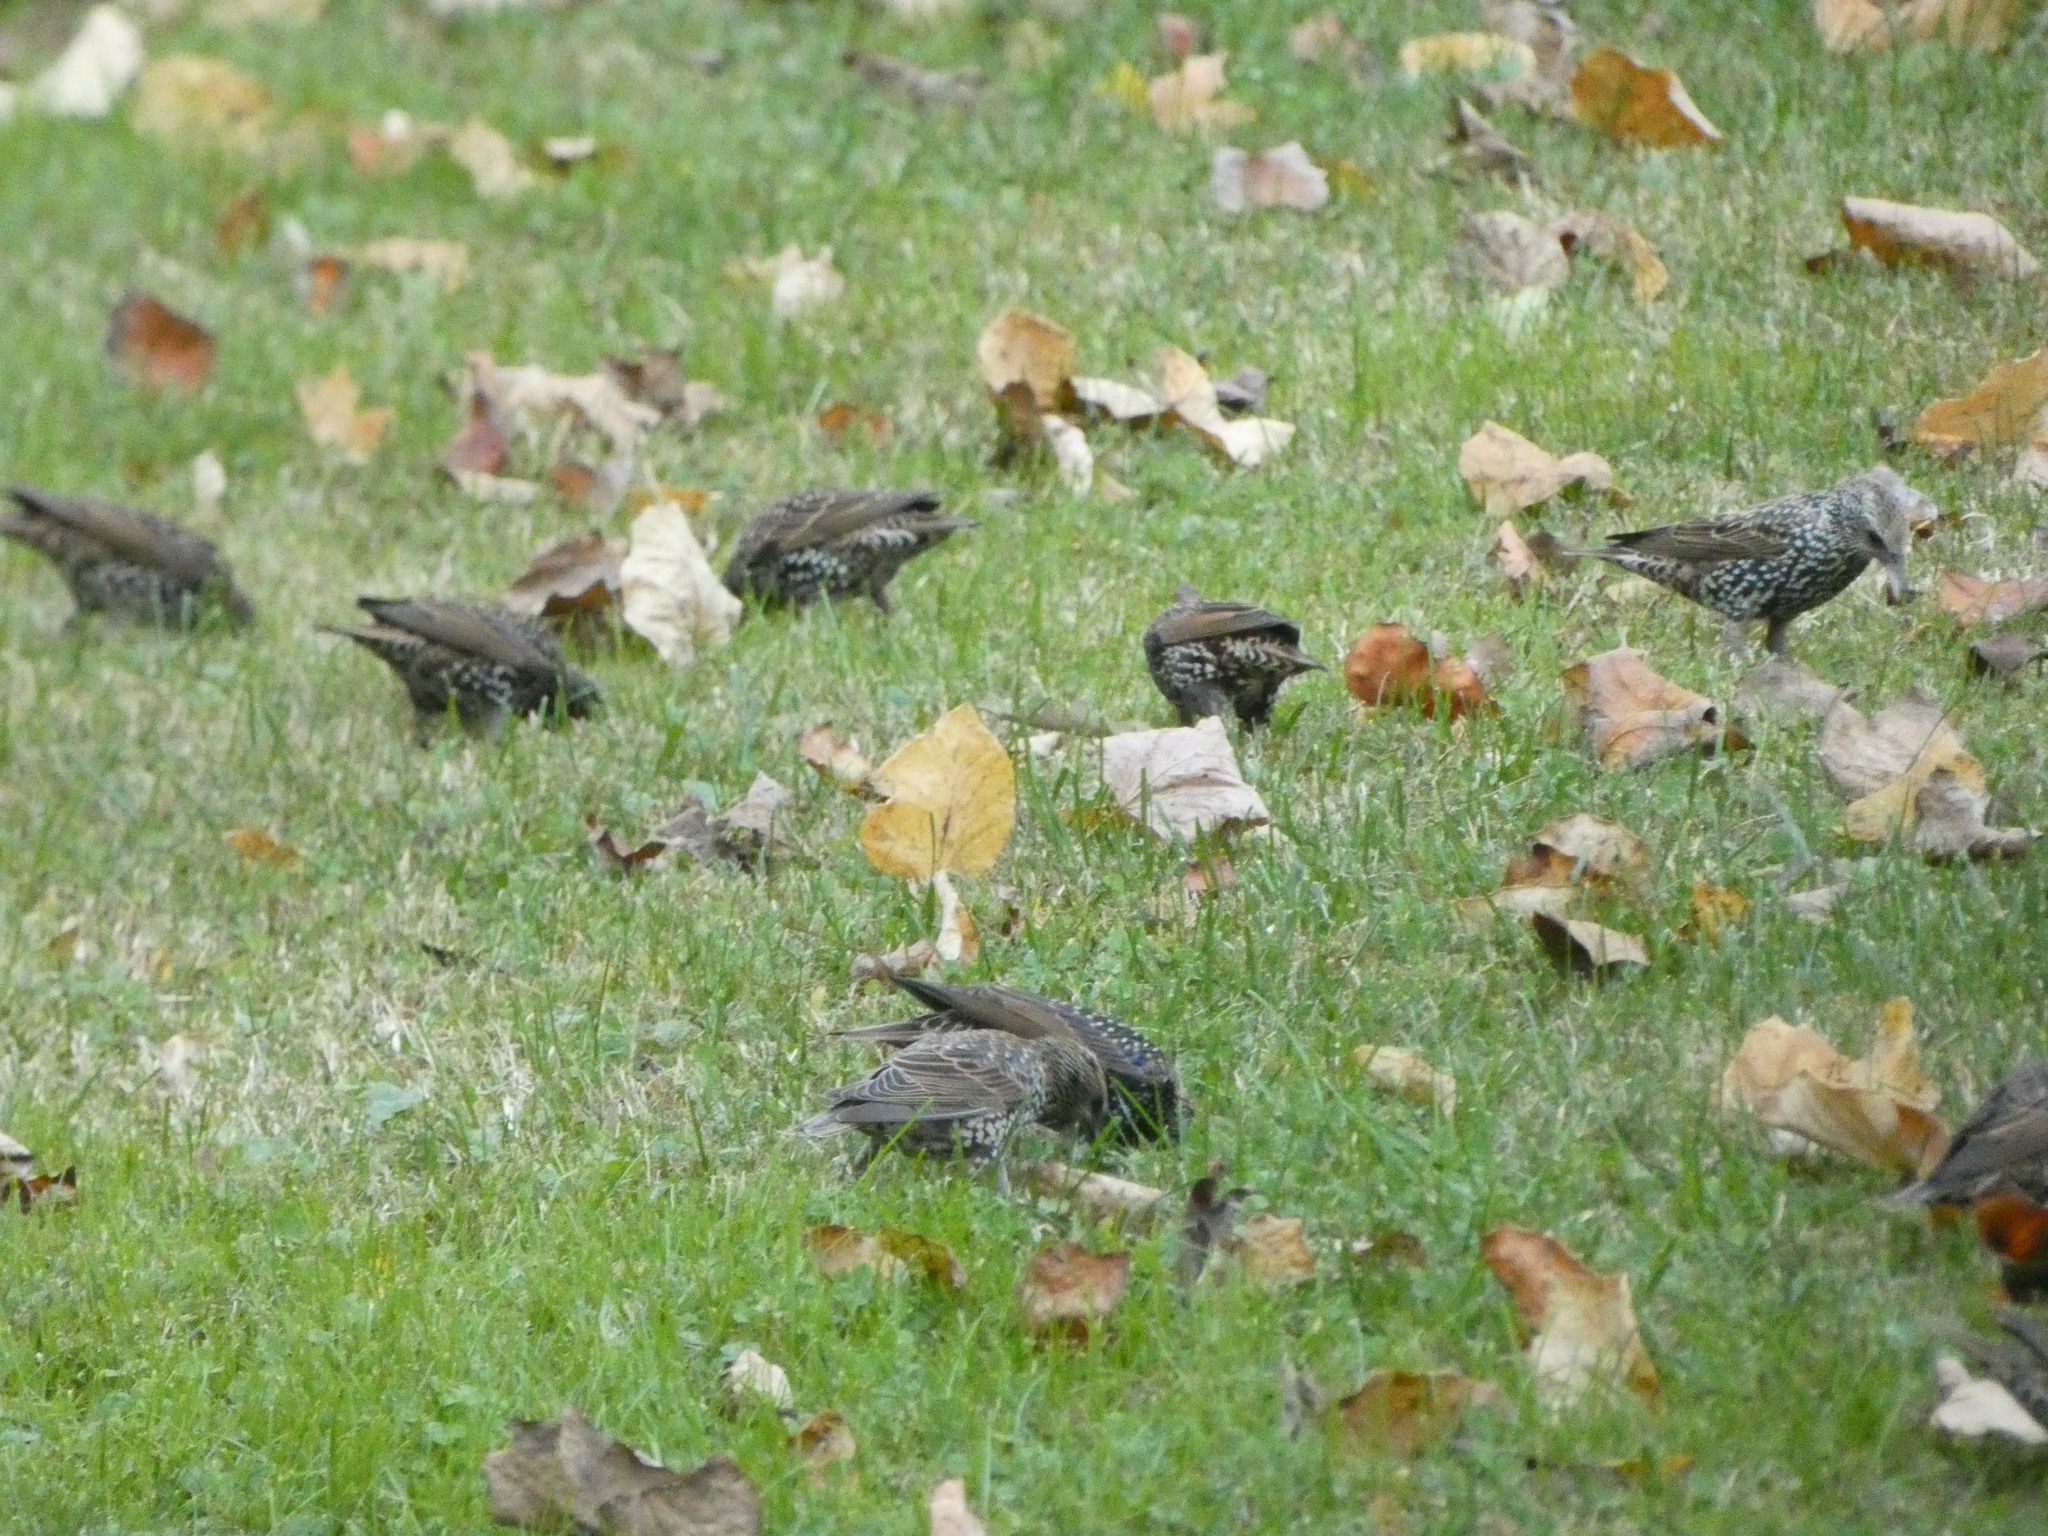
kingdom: Animalia
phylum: Chordata
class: Aves
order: Passeriformes
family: Sturnidae
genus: Sturnus
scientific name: Sturnus vulgaris
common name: Common starling
